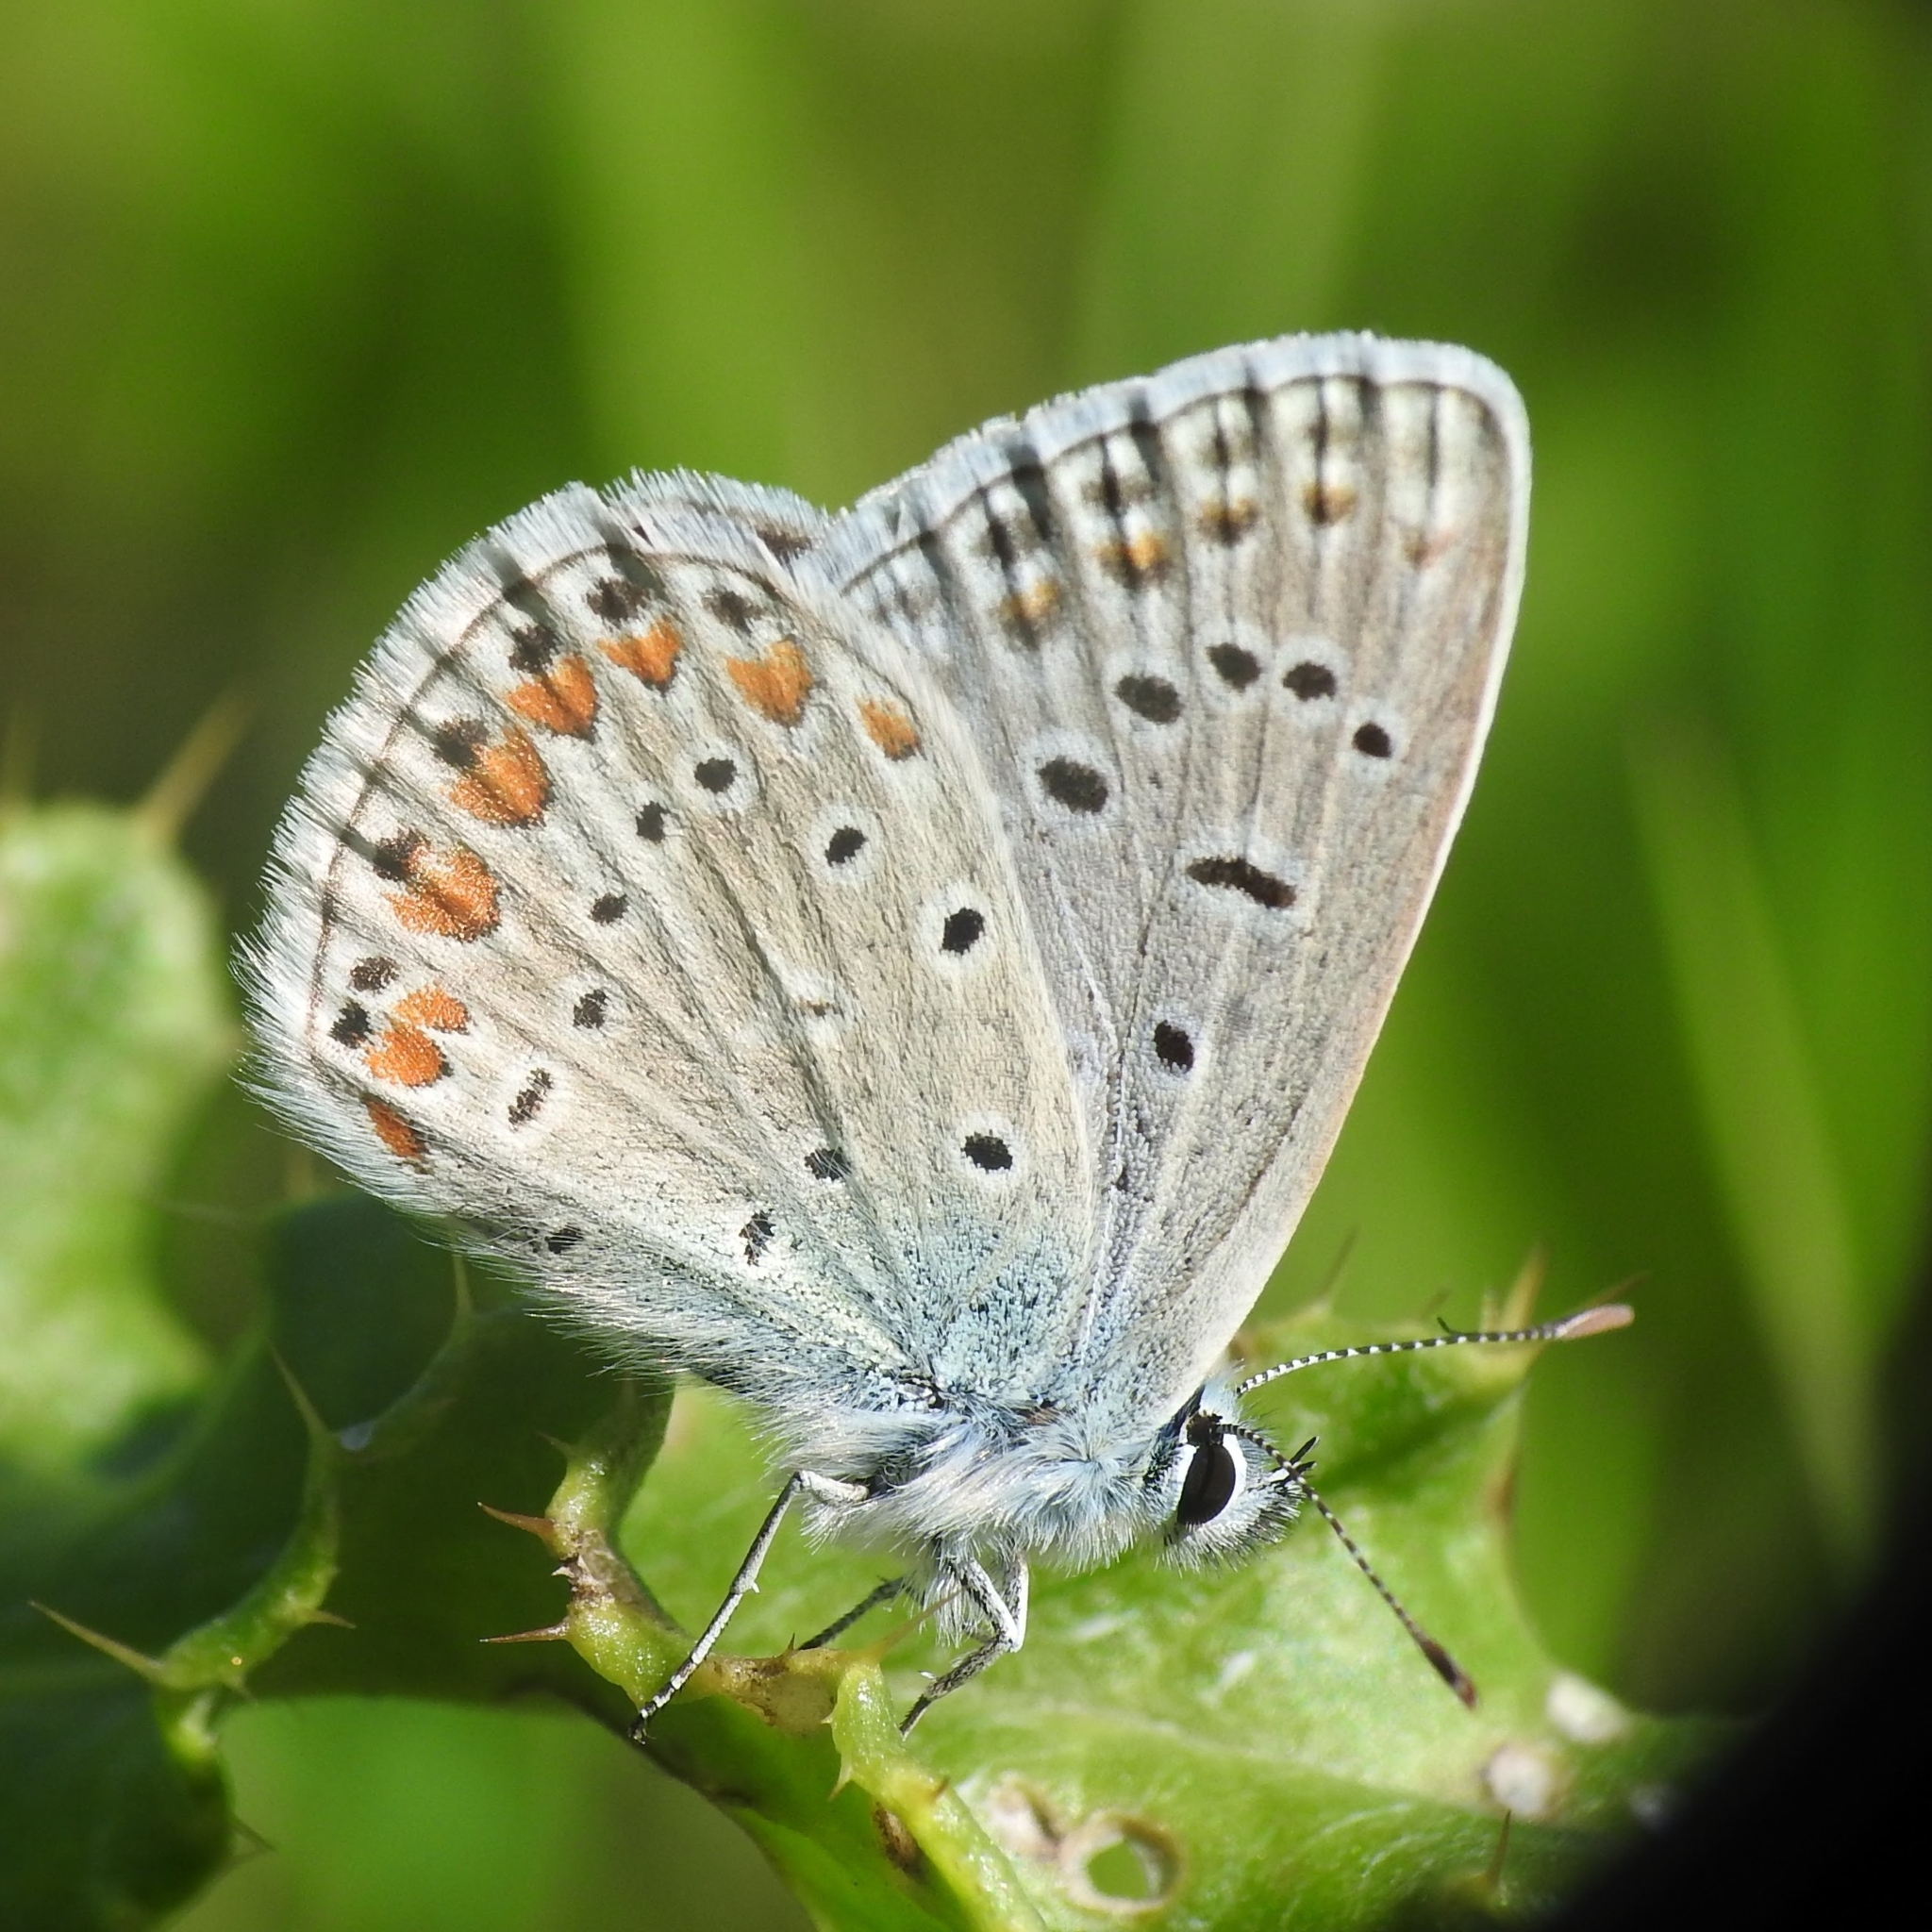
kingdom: Animalia
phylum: Arthropoda
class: Insecta
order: Lepidoptera
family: Lycaenidae
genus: Polyommatus
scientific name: Polyommatus icarus
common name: Common blue
